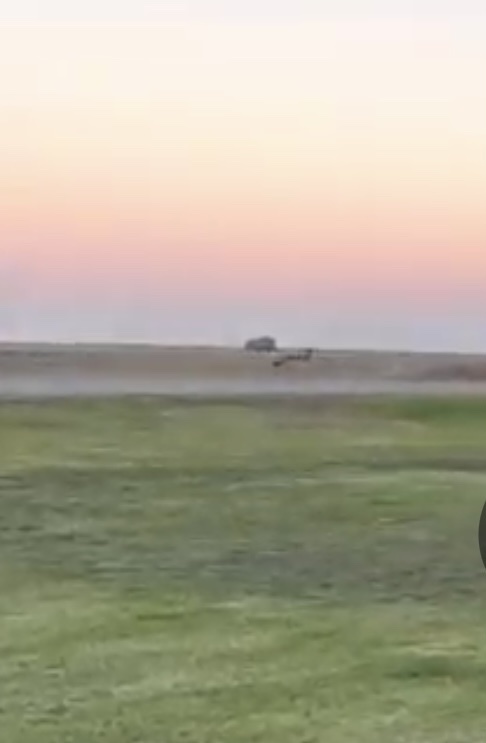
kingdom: Animalia
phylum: Chordata
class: Mammalia
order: Carnivora
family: Canidae
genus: Canis
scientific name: Canis latrans
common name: Coyote
